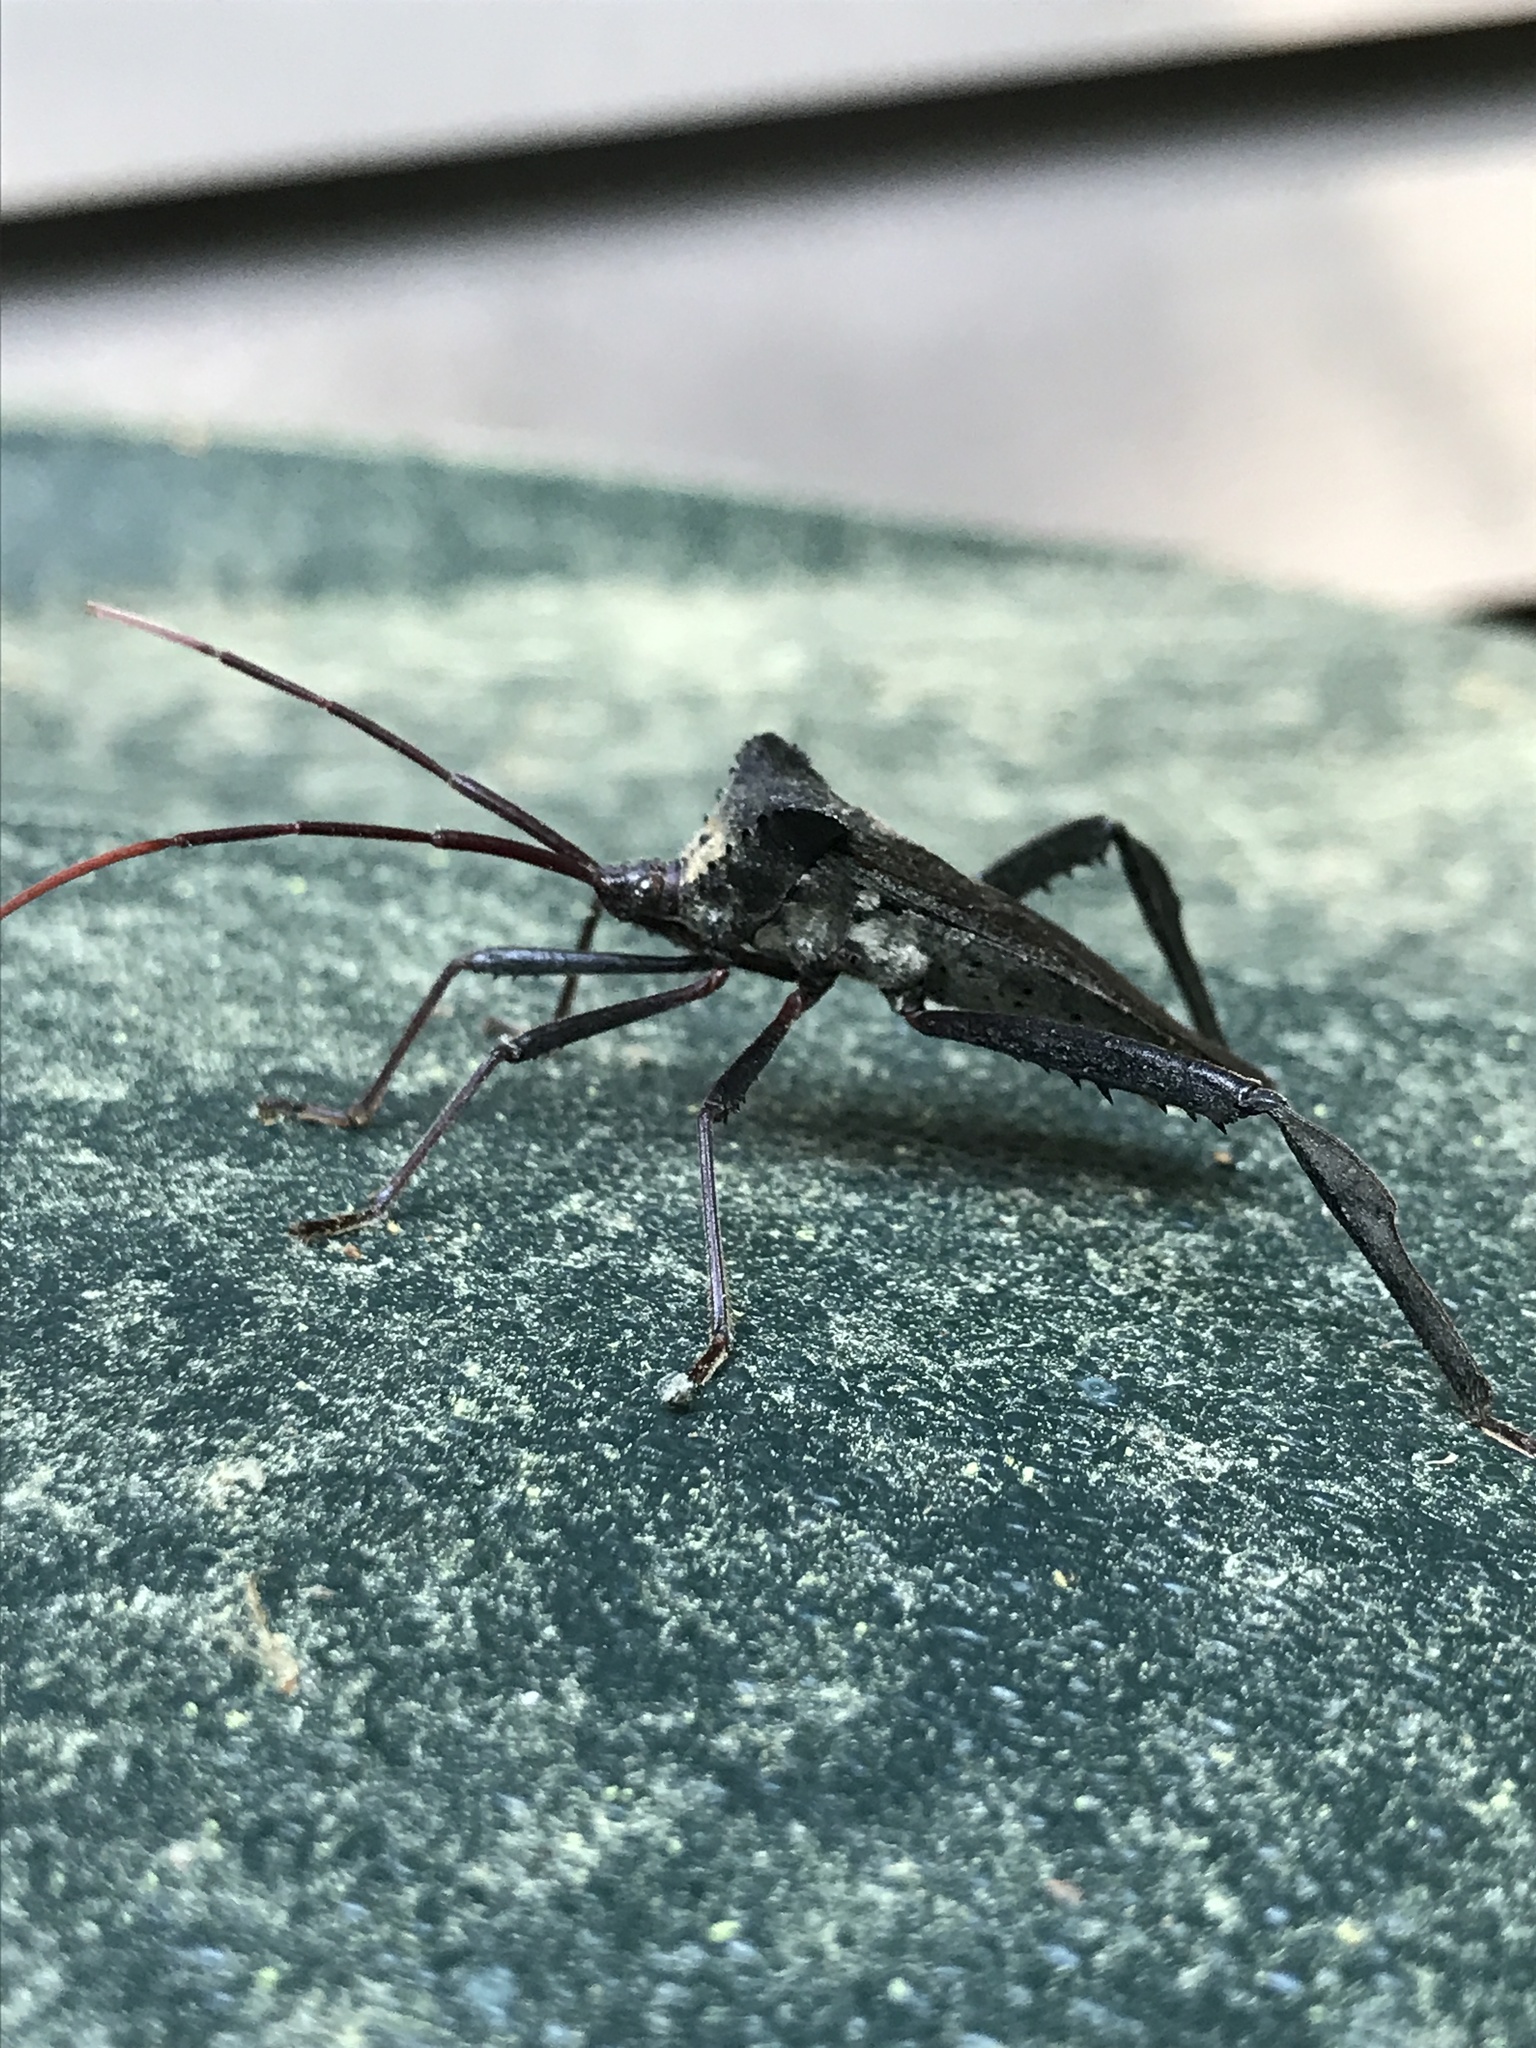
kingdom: Animalia
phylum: Arthropoda
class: Insecta
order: Hemiptera
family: Coreidae
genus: Acanthocephala
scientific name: Acanthocephala declivis
